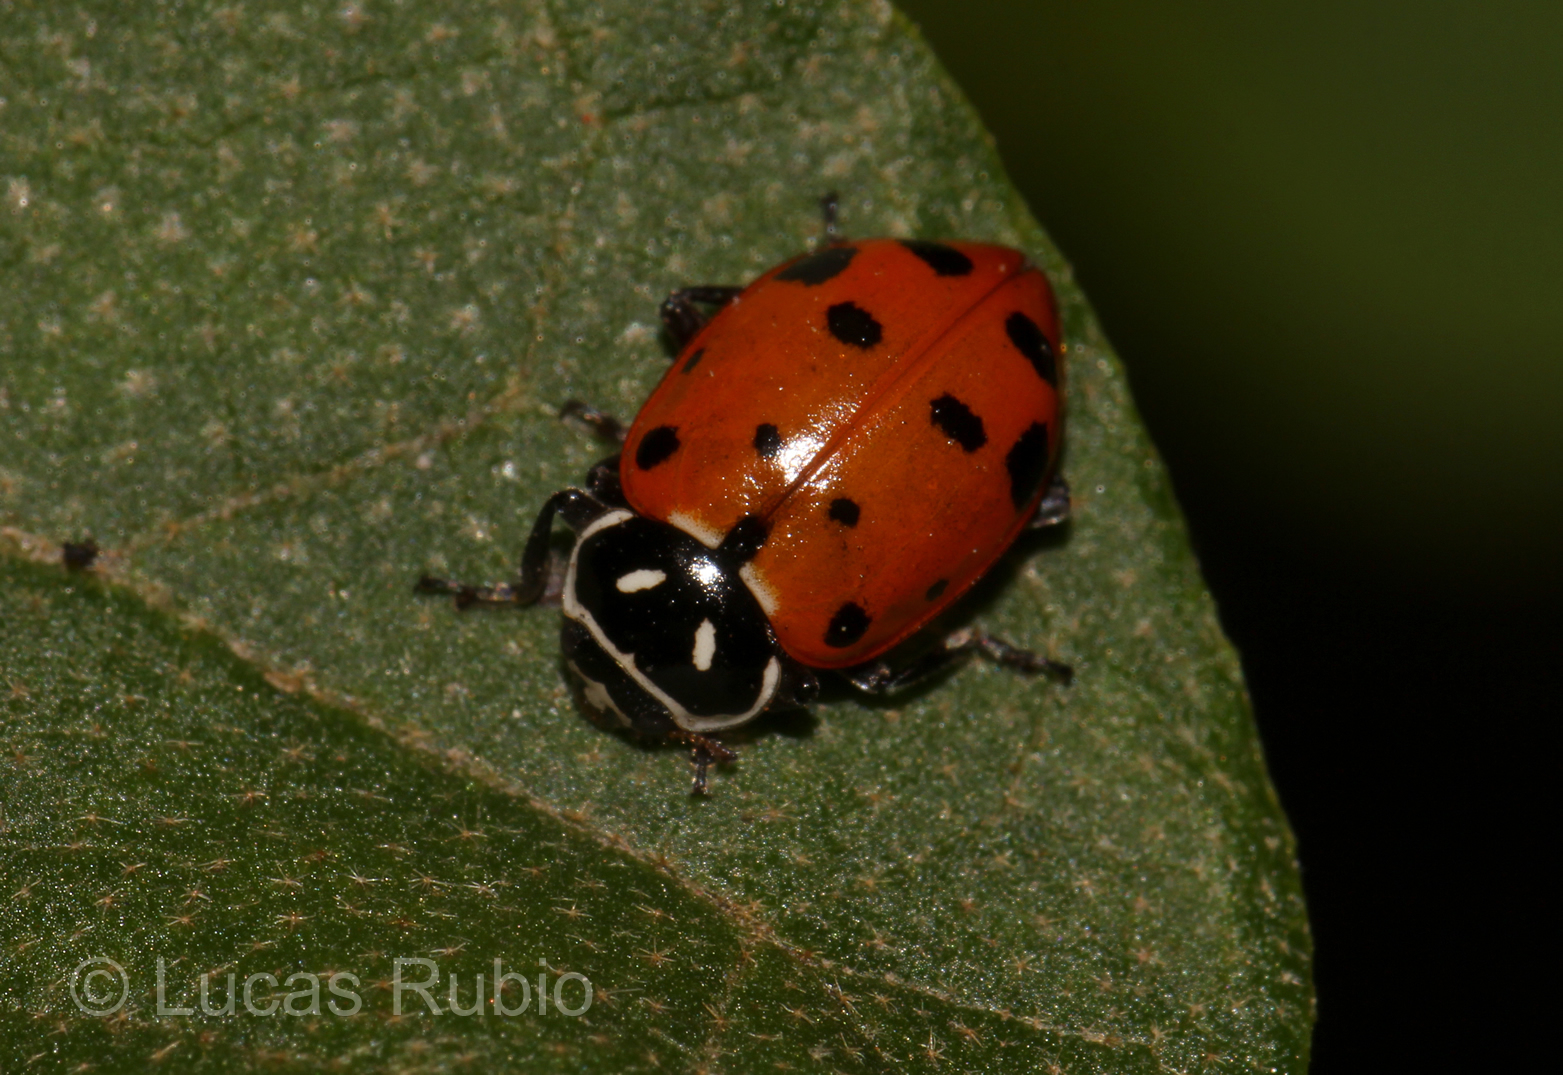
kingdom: Animalia
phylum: Arthropoda
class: Insecta
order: Coleoptera
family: Coccinellidae
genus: Hippodamia
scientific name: Hippodamia convergens
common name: Convergent lady beetle
